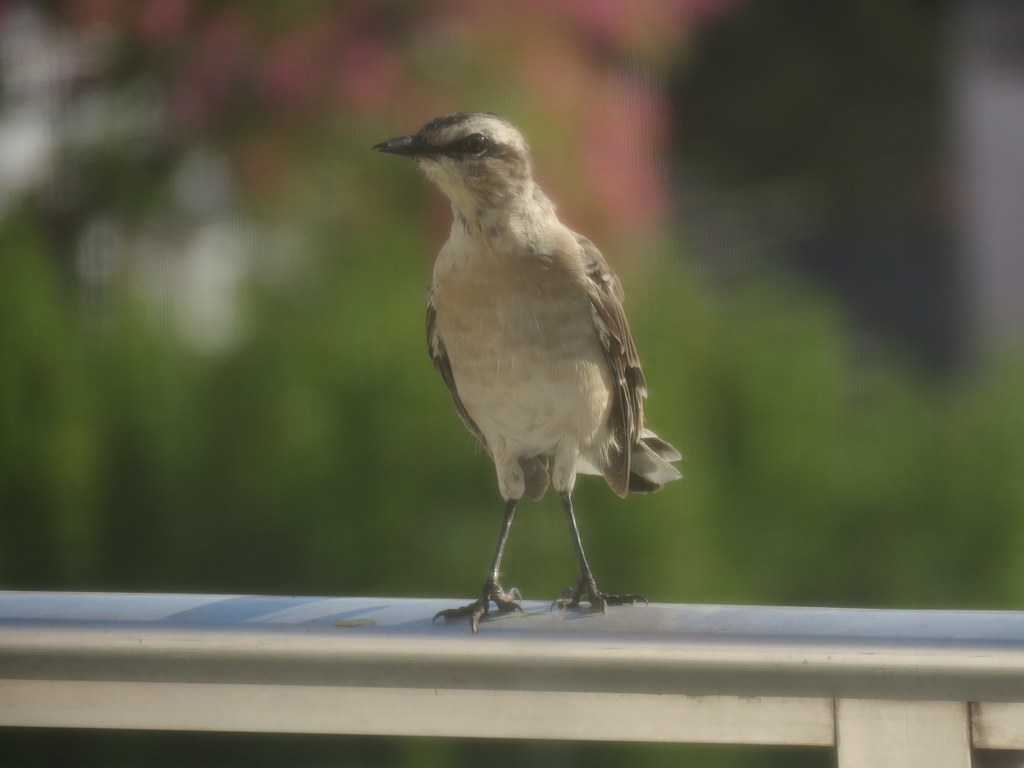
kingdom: Animalia
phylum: Chordata
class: Aves
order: Passeriformes
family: Mimidae
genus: Mimus
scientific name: Mimus saturninus
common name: Chalk-browed mockingbird
